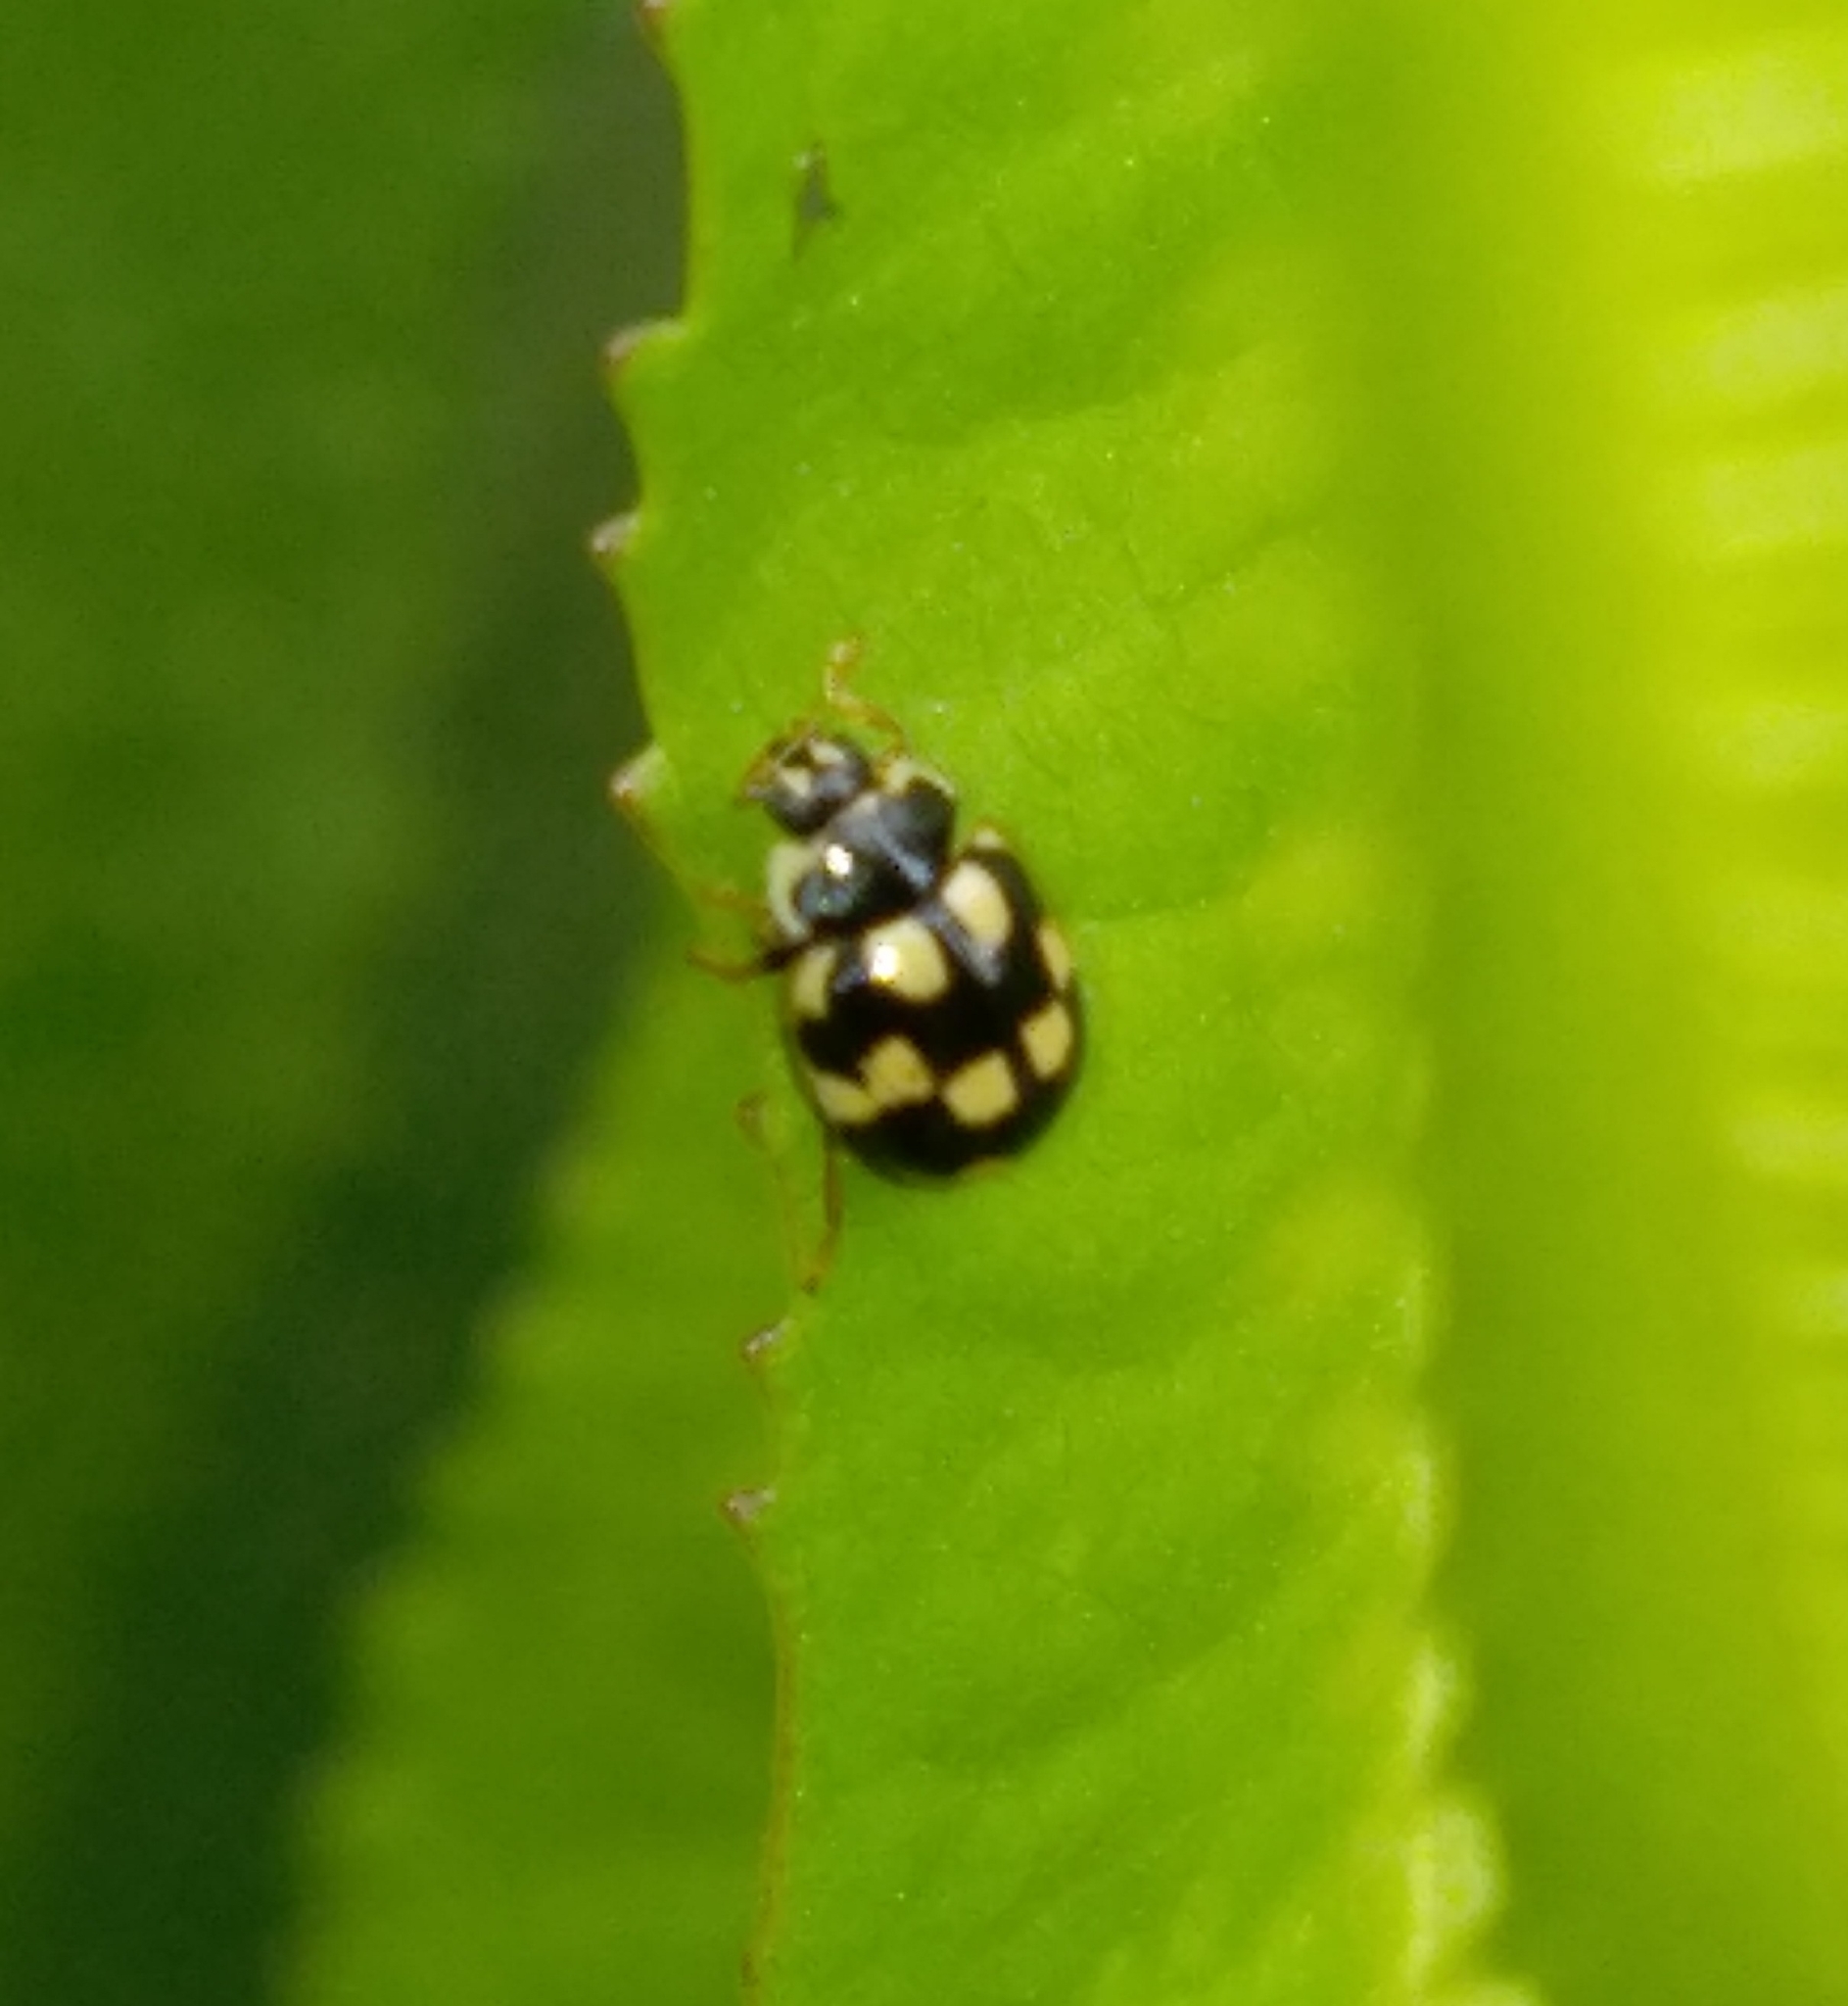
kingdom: Animalia
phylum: Arthropoda
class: Insecta
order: Coleoptera
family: Coccinellidae
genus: Propylaea
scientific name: Propylaea quatuordecimpunctata
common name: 14-spotted ladybird beetle
